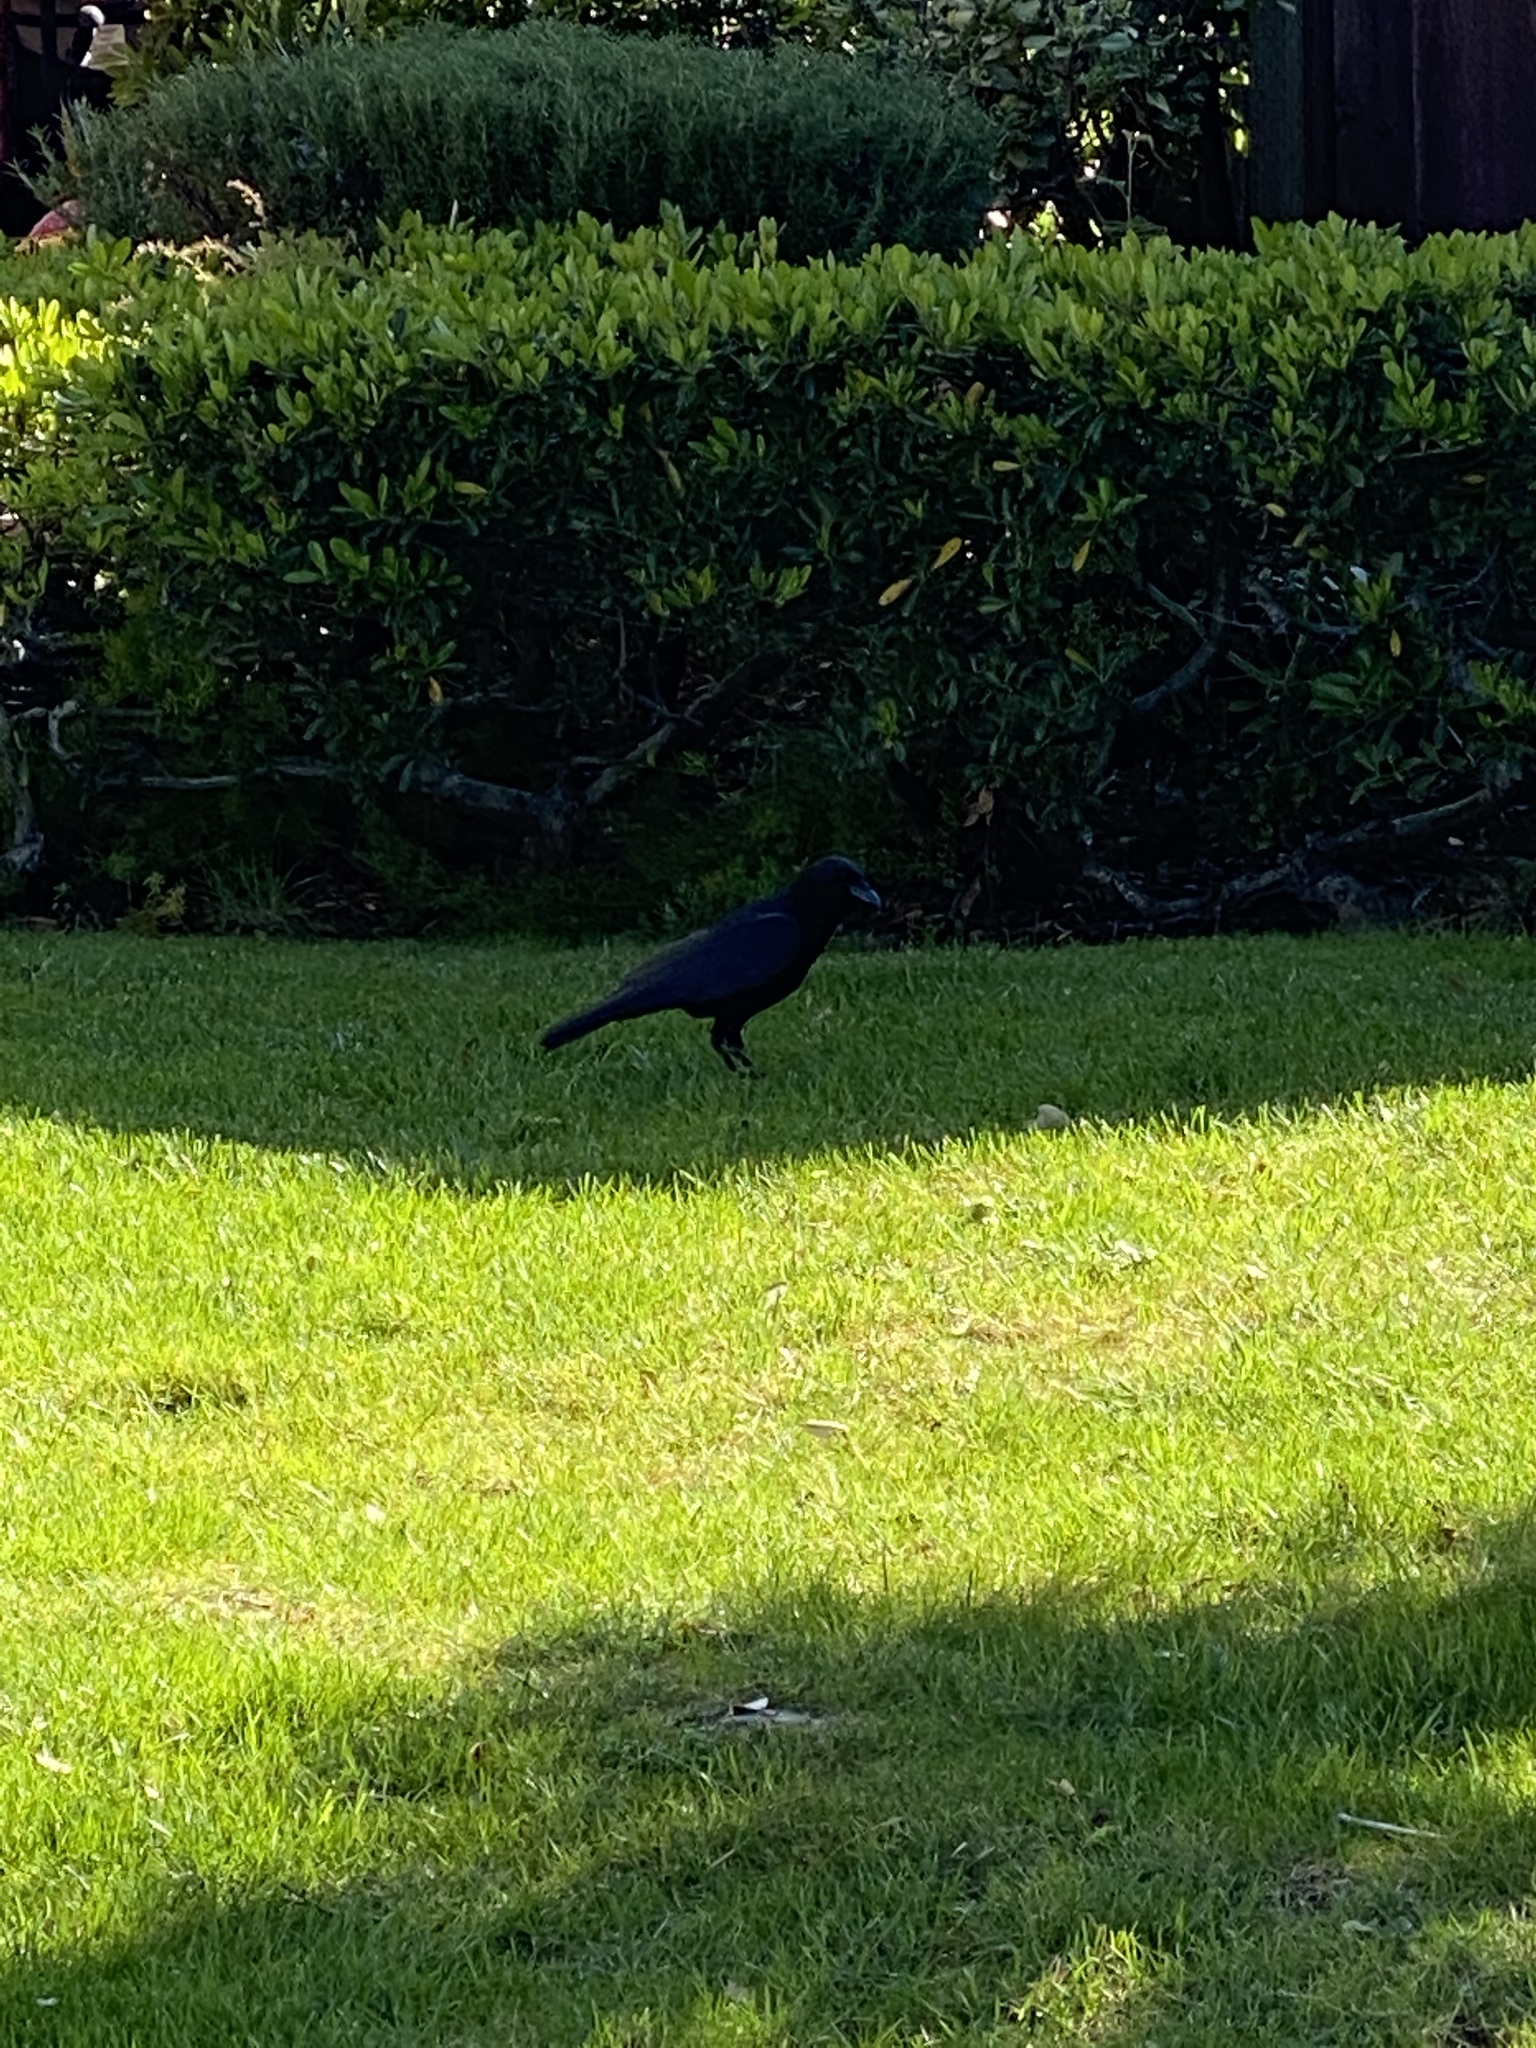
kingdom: Animalia
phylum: Chordata
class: Aves
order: Passeriformes
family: Corvidae
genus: Corvus
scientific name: Corvus brachyrhynchos
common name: American crow
